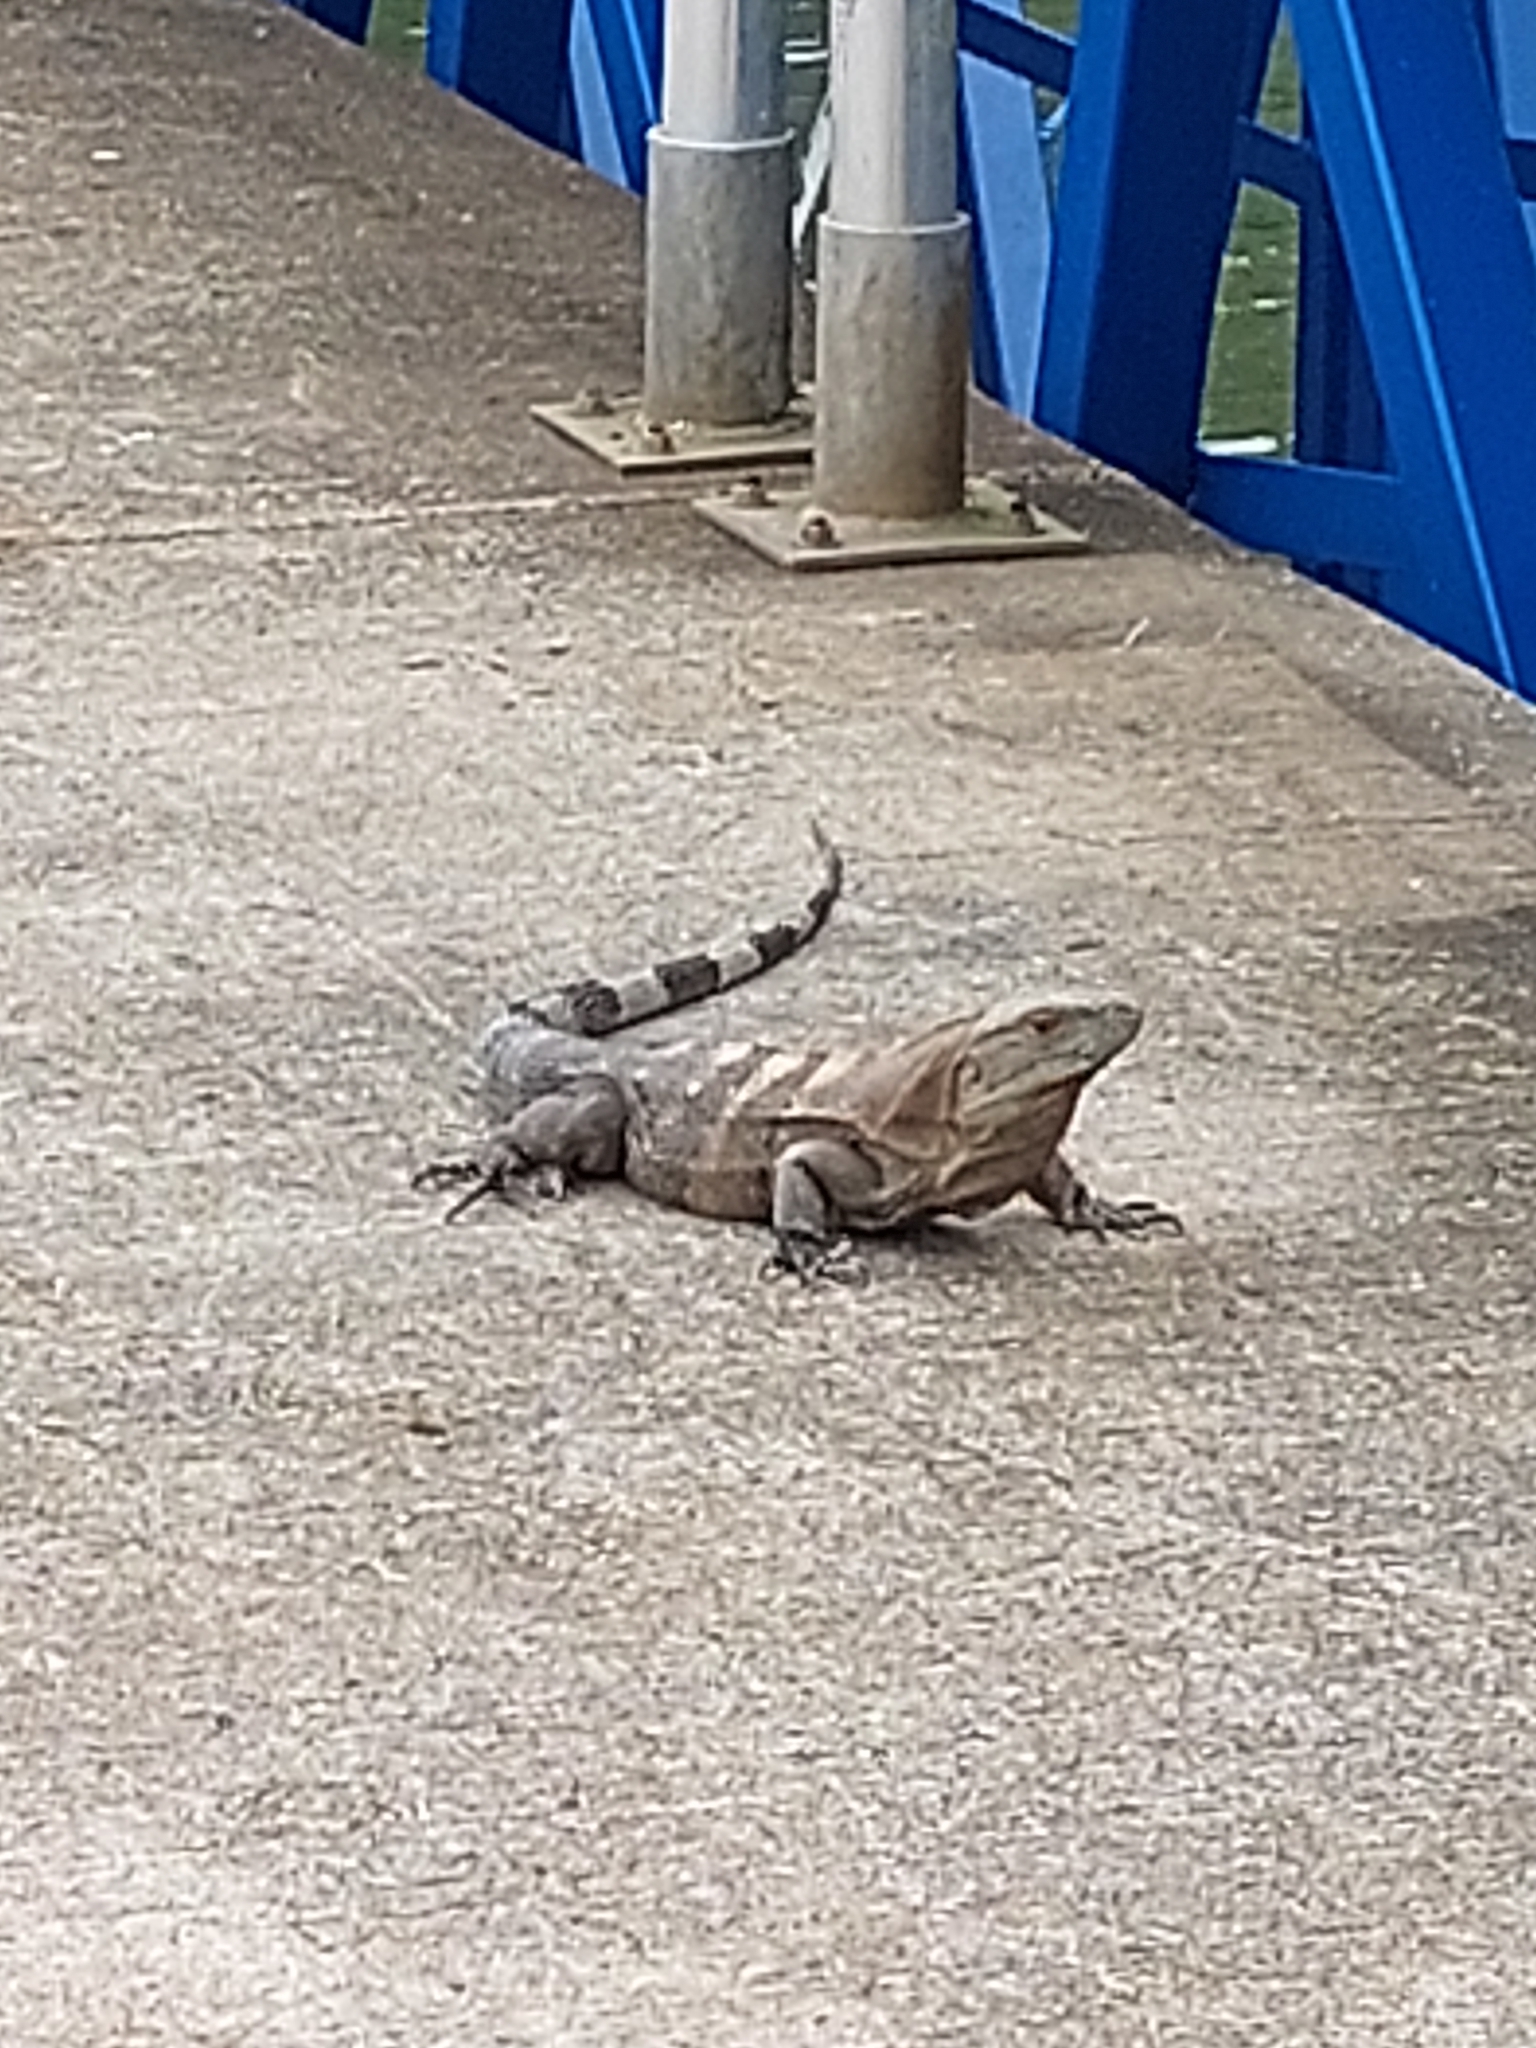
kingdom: Animalia
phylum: Chordata
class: Squamata
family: Iguanidae
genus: Ctenosaura
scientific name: Ctenosaura similis
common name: Black spiny-tailed iguana
